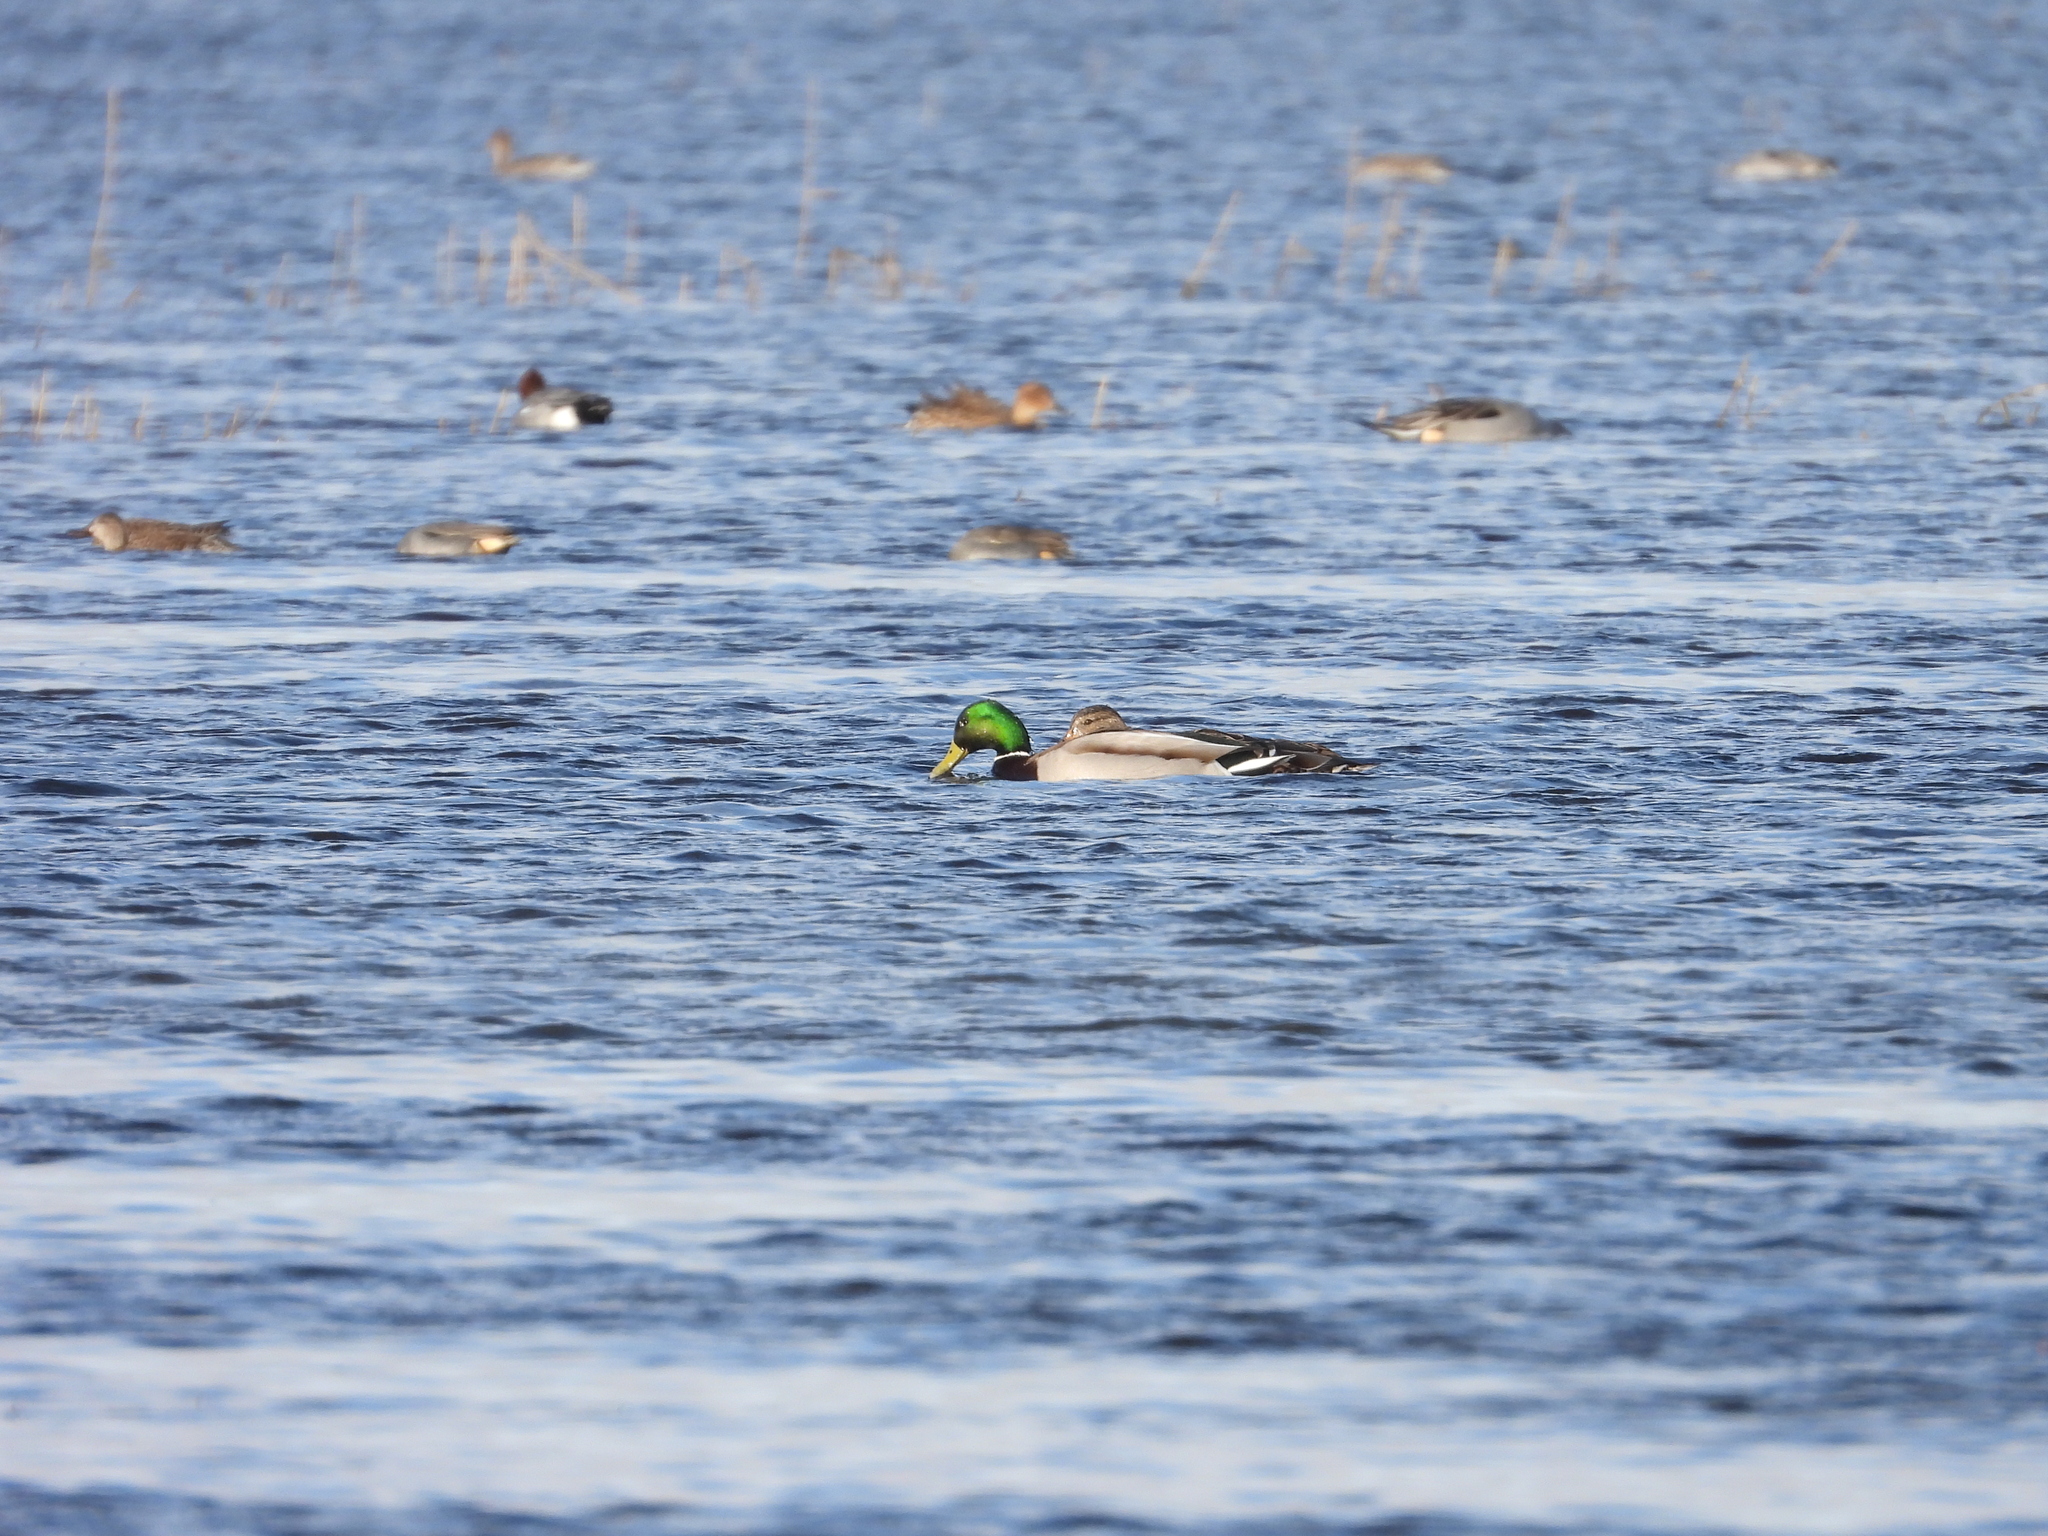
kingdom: Animalia
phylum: Chordata
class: Aves
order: Anseriformes
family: Anatidae
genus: Anas
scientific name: Anas platyrhynchos
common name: Mallard
